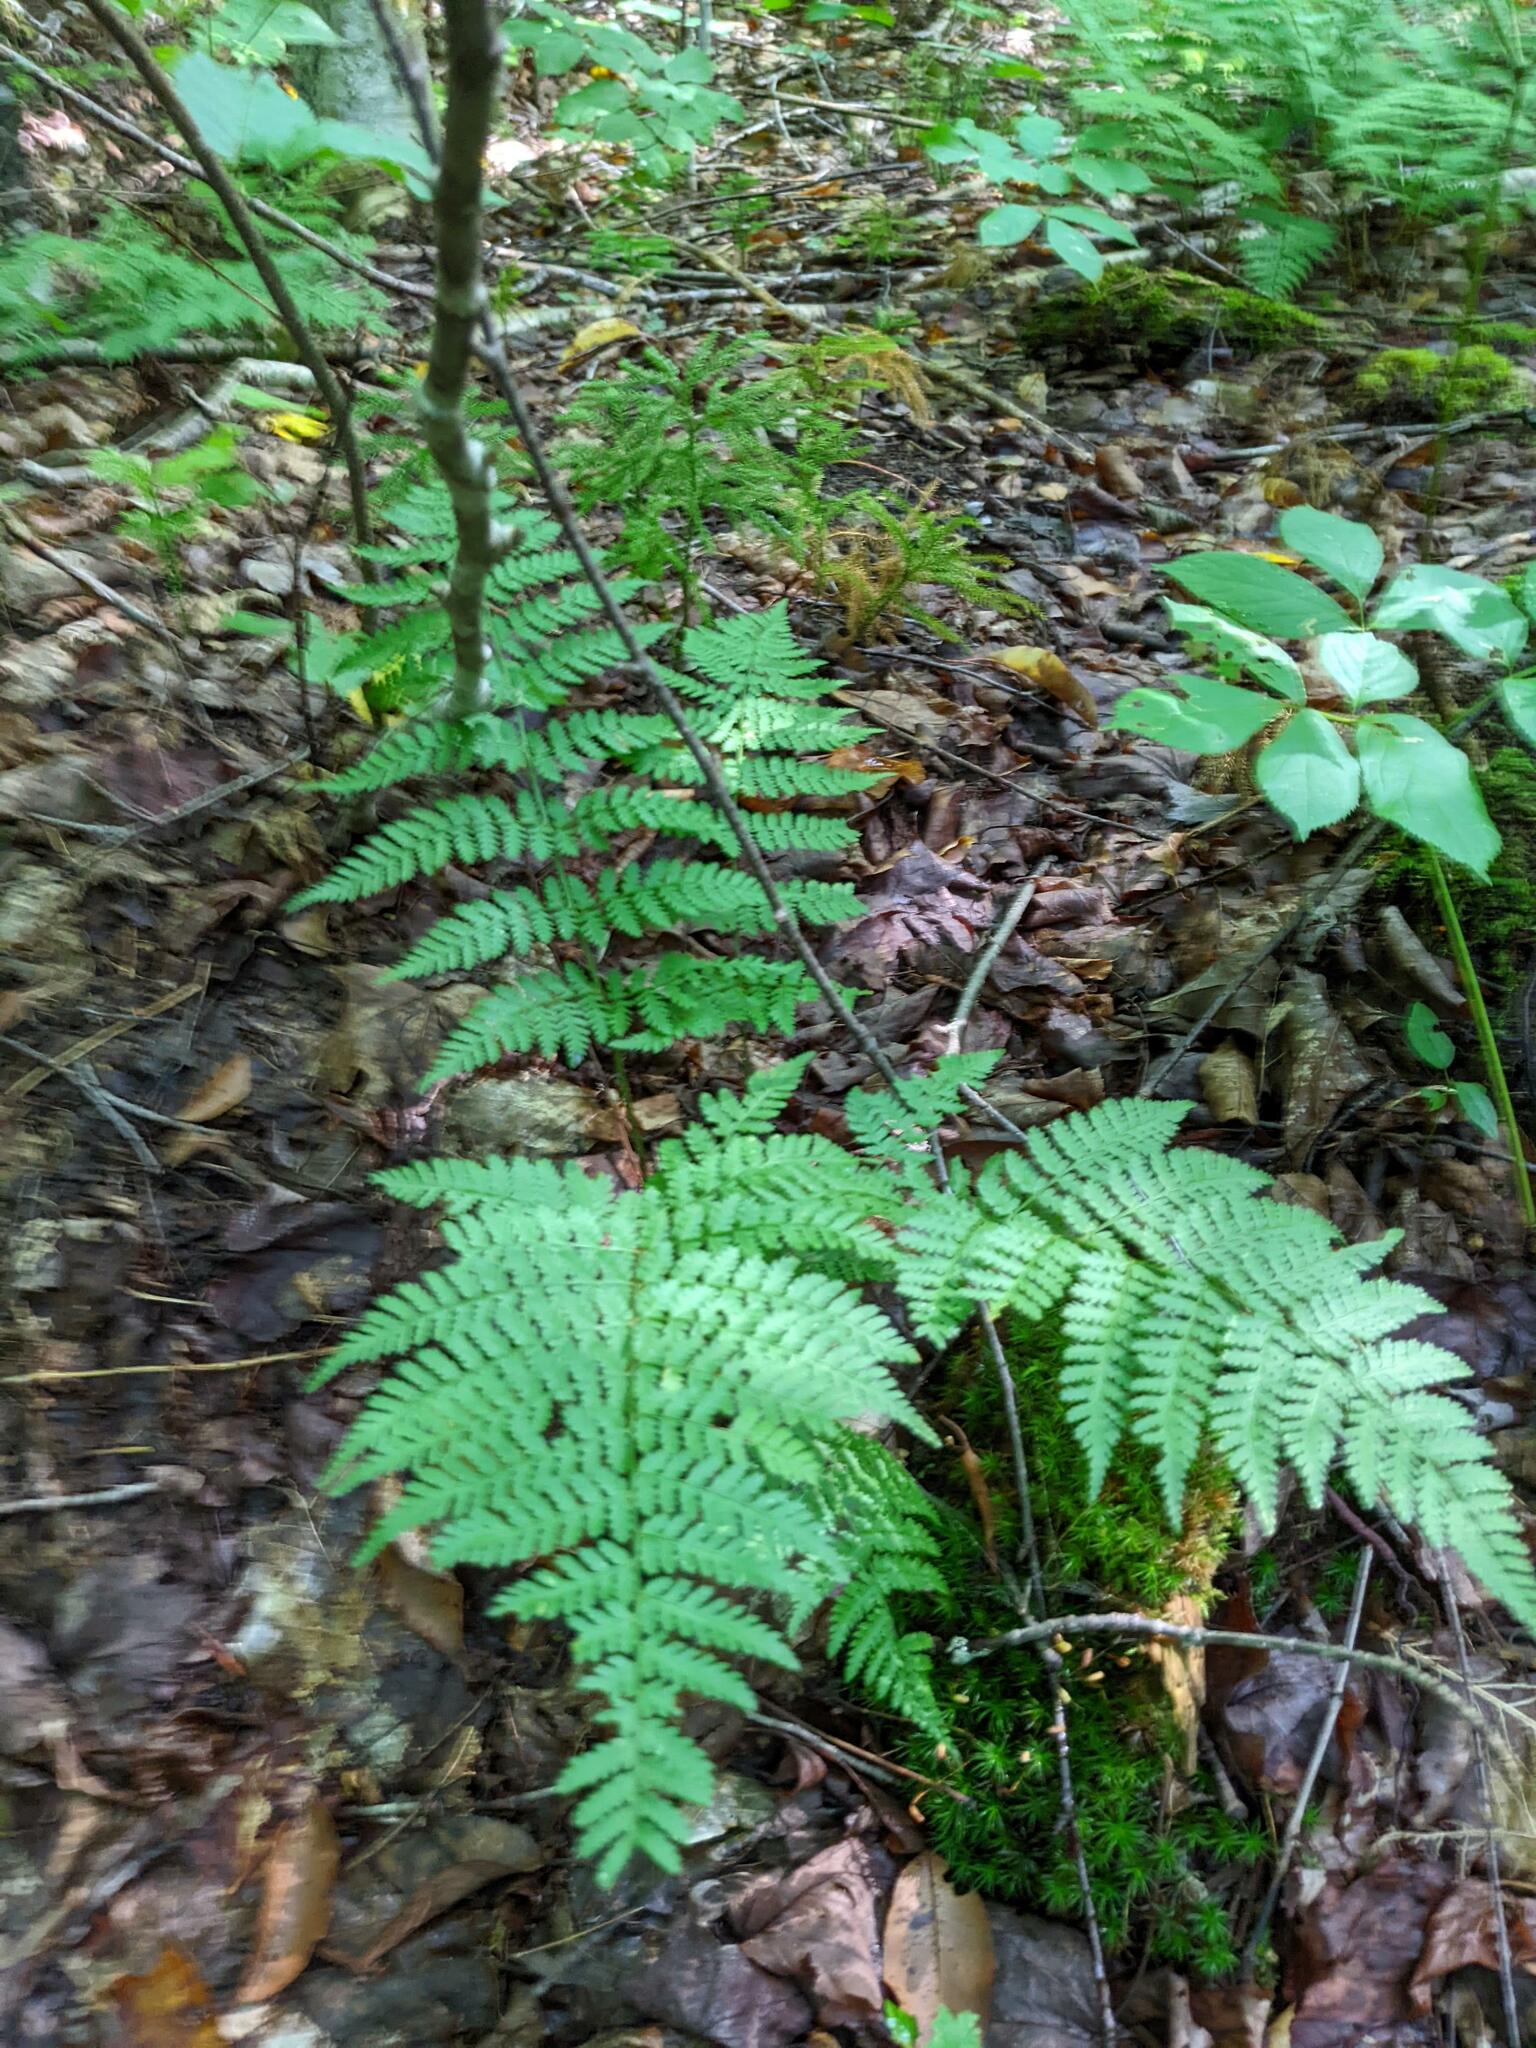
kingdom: Plantae
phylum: Tracheophyta
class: Polypodiopsida
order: Polypodiales
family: Dryopteridaceae
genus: Dryopteris
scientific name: Dryopteris intermedia
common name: Evergreen wood fern
